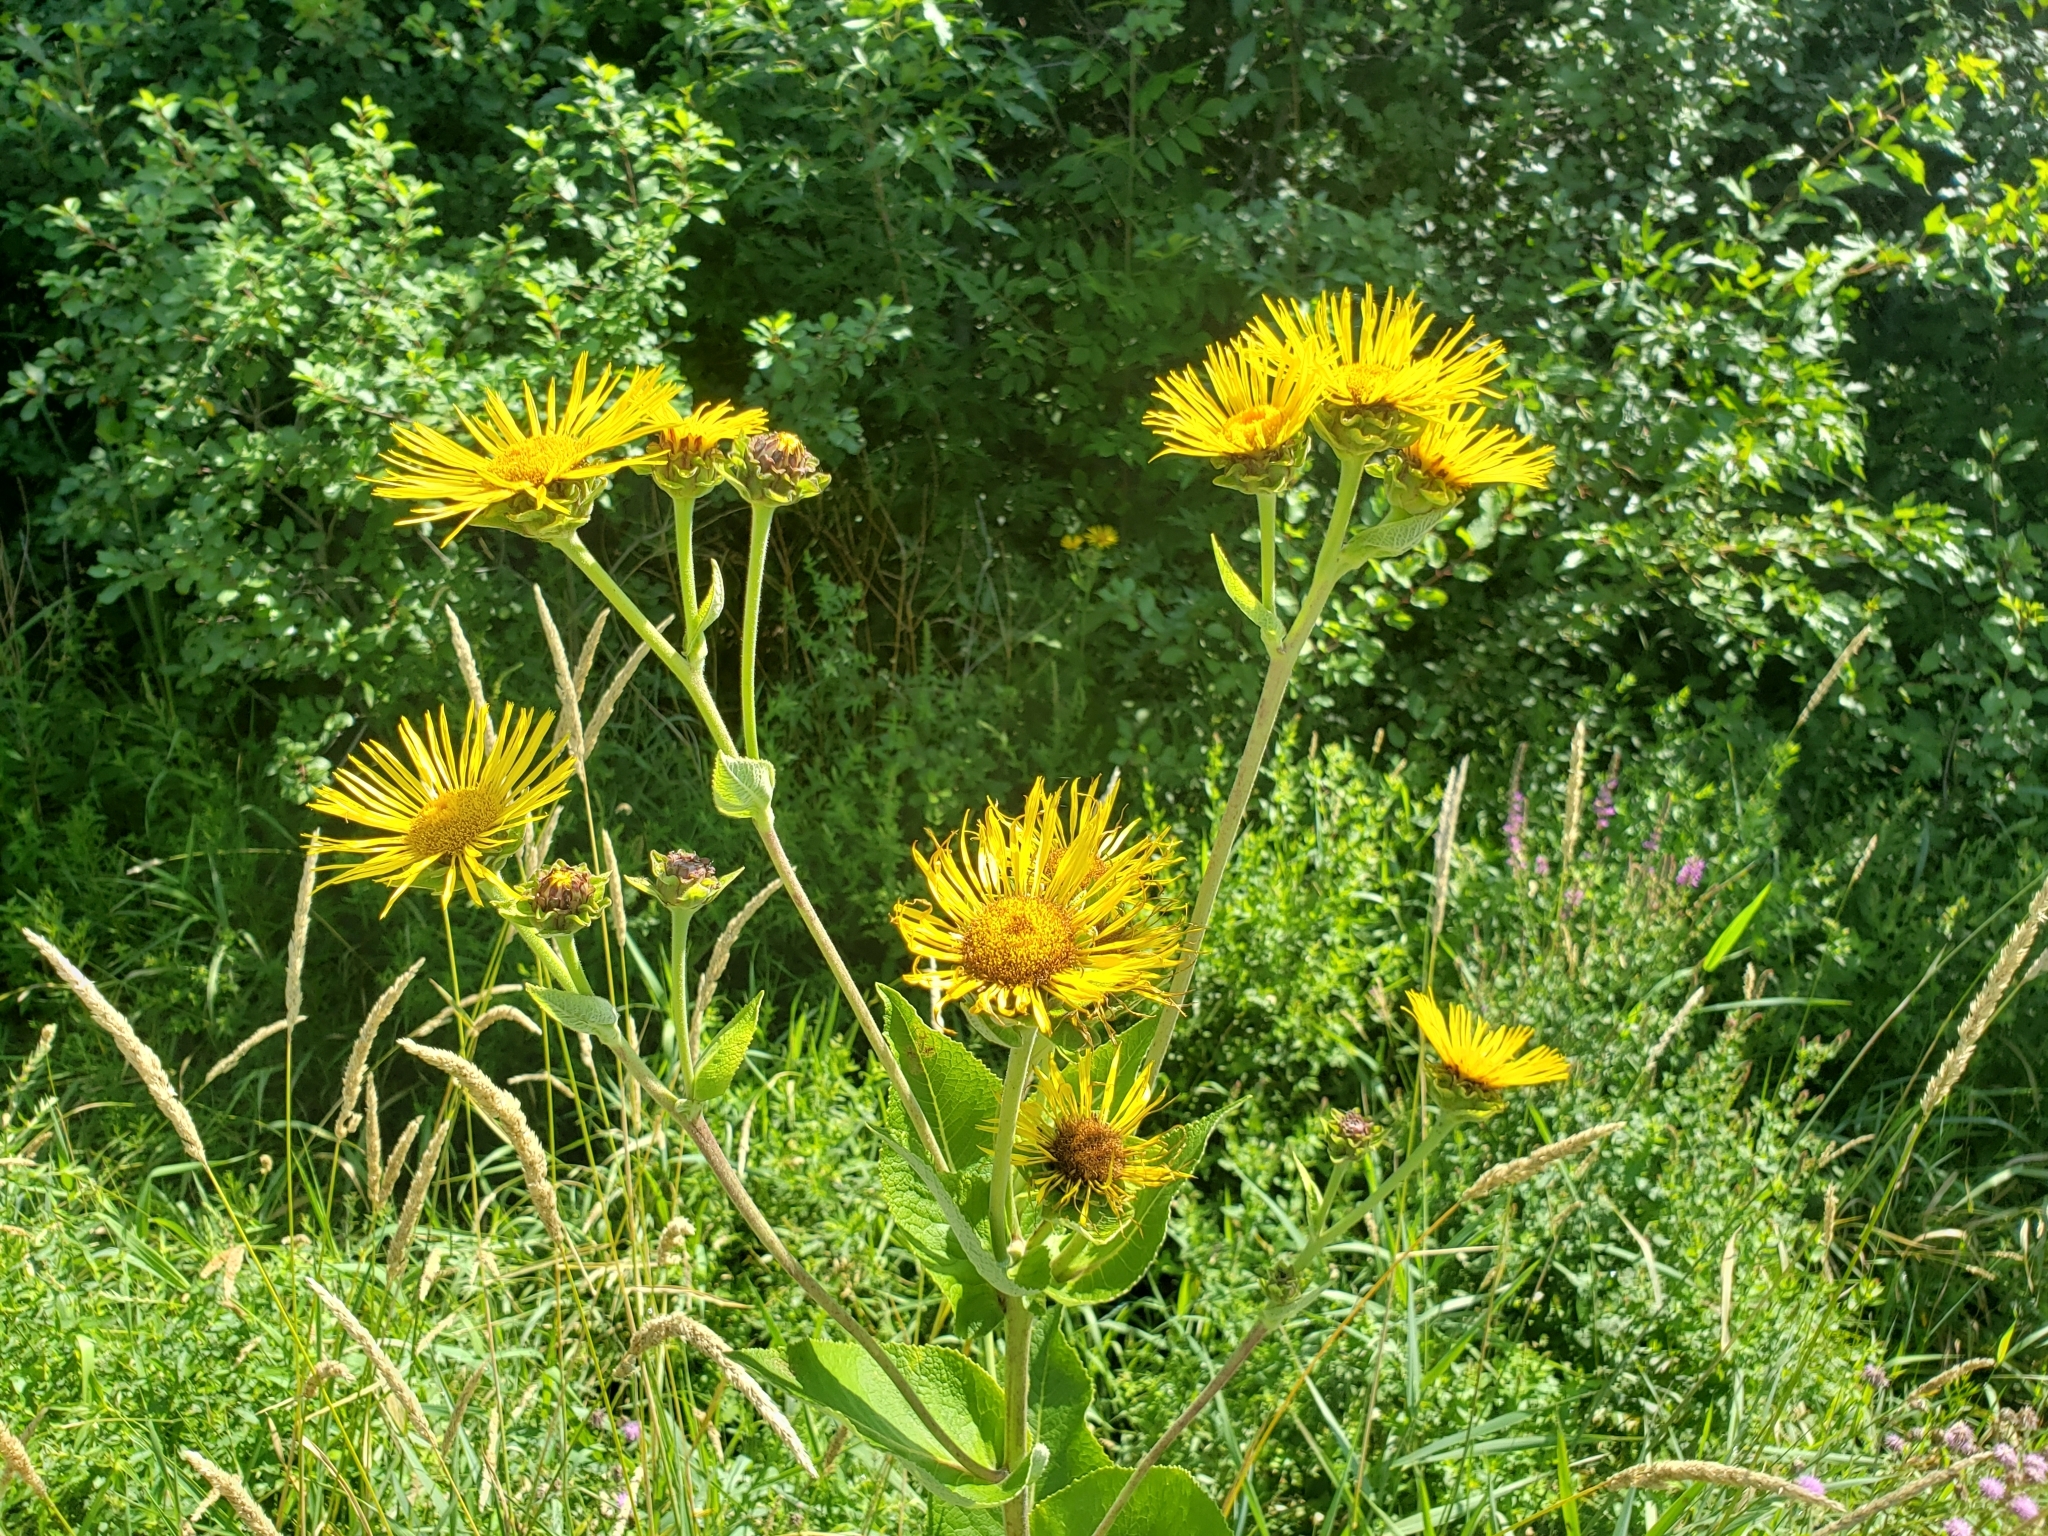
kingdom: Plantae
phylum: Tracheophyta
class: Magnoliopsida
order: Asterales
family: Asteraceae
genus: Inula
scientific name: Inula helenium
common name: Elecampane
